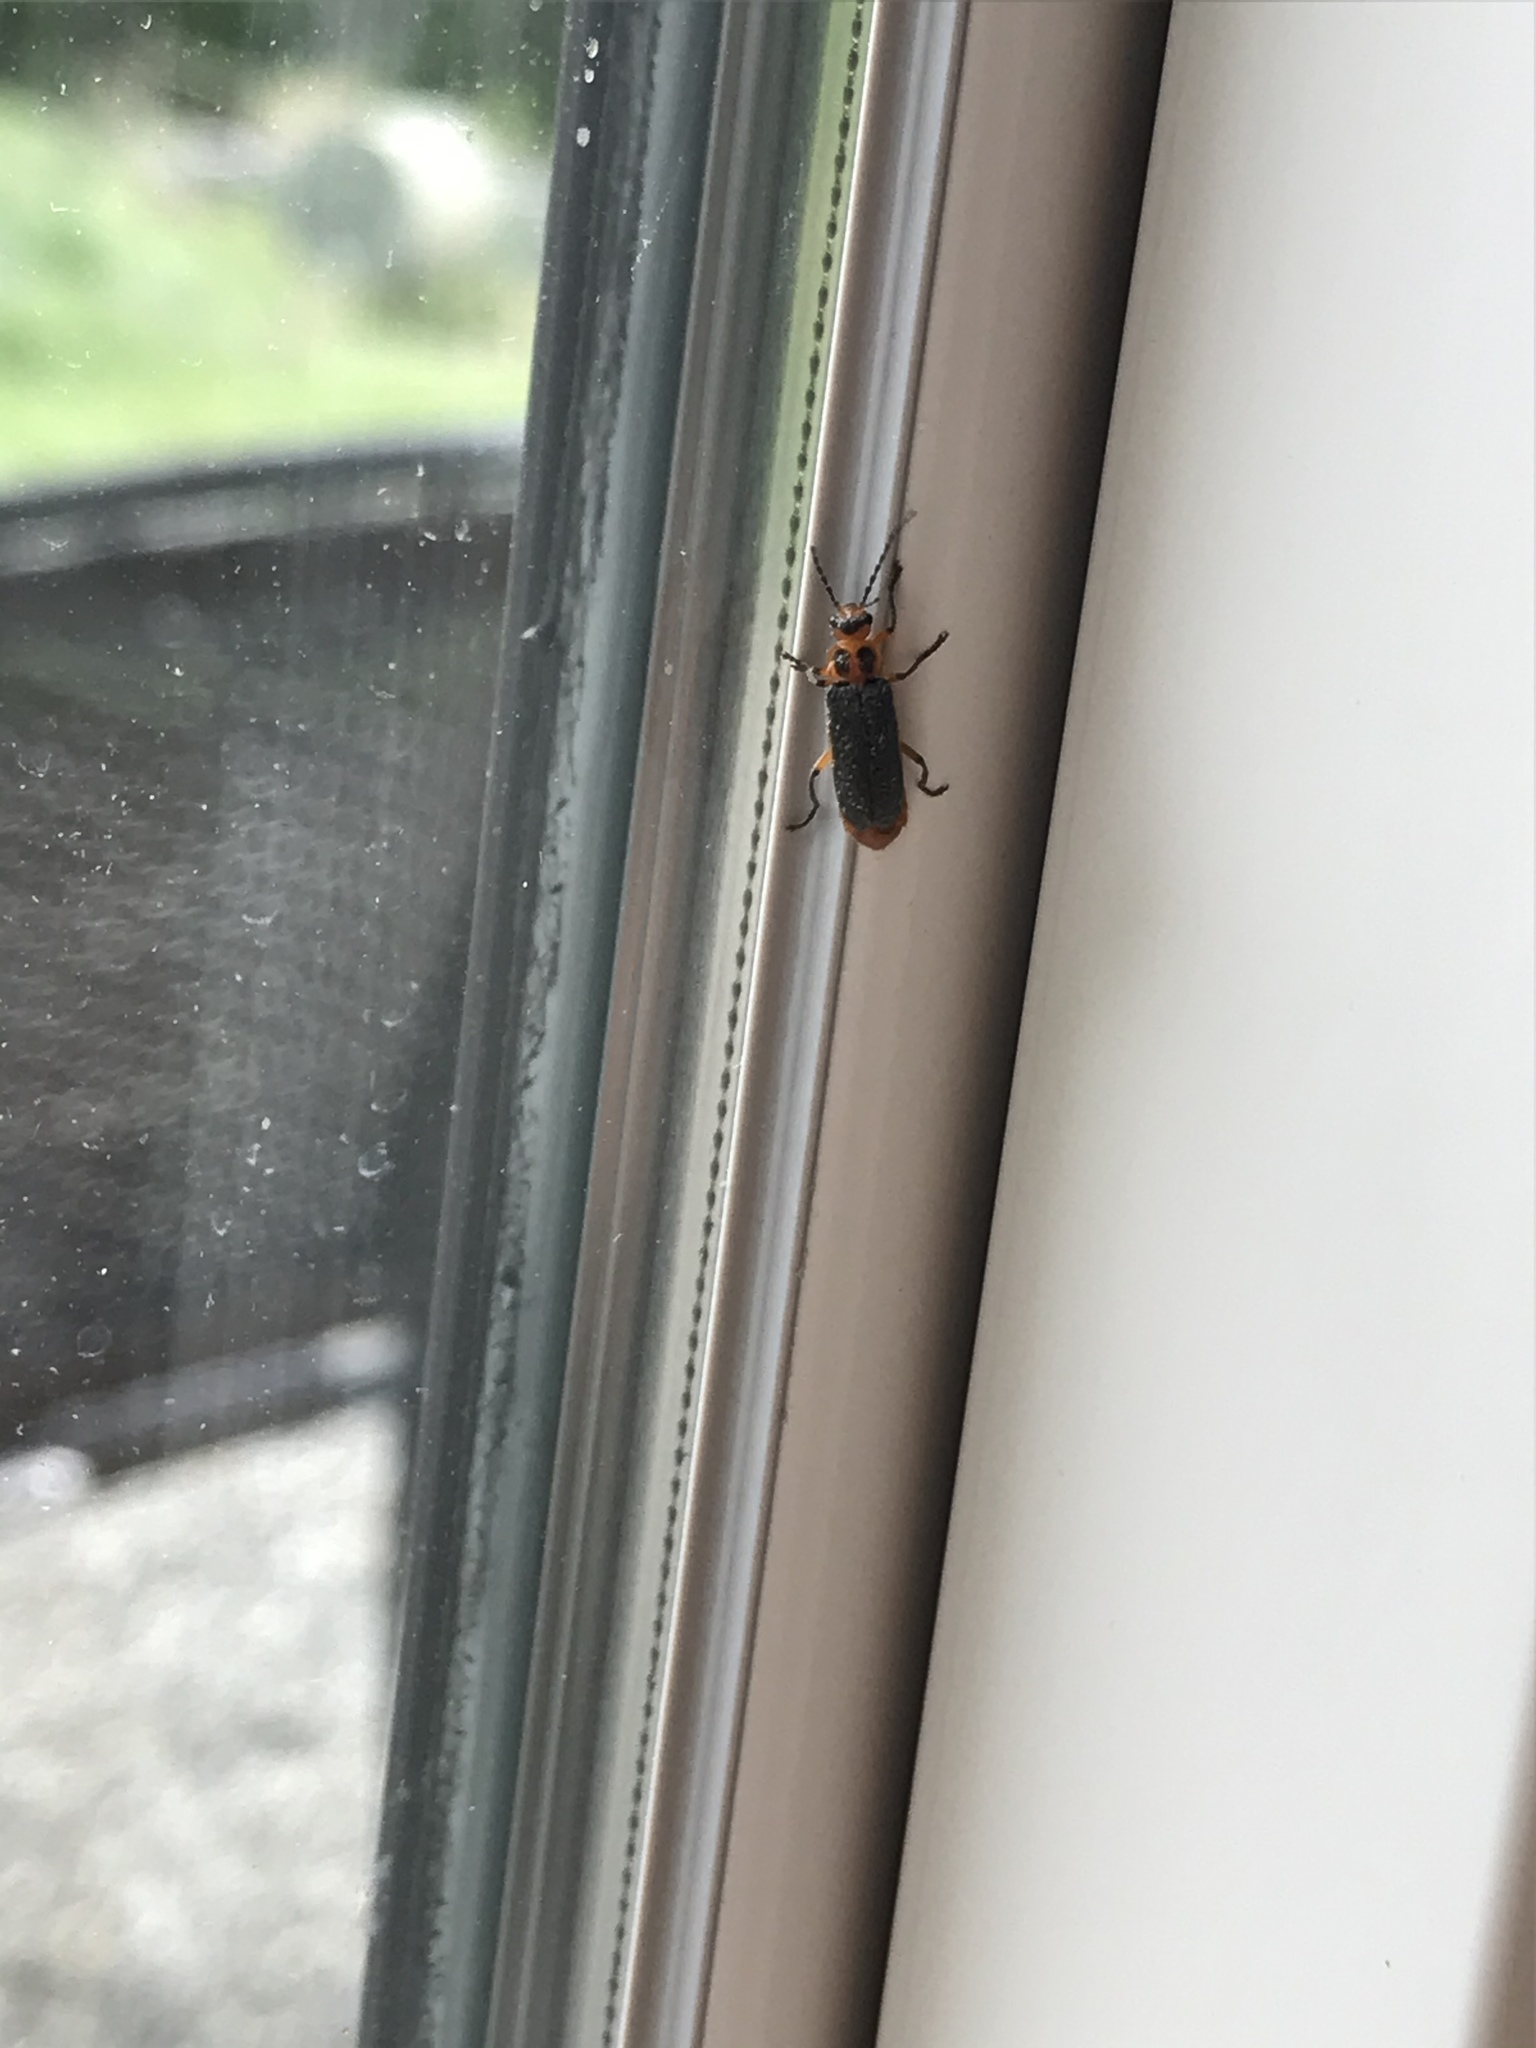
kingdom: Animalia
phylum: Arthropoda
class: Insecta
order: Coleoptera
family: Cantharidae
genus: Atalantycha
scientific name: Atalantycha bilineata
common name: Two-lined leatherwing
